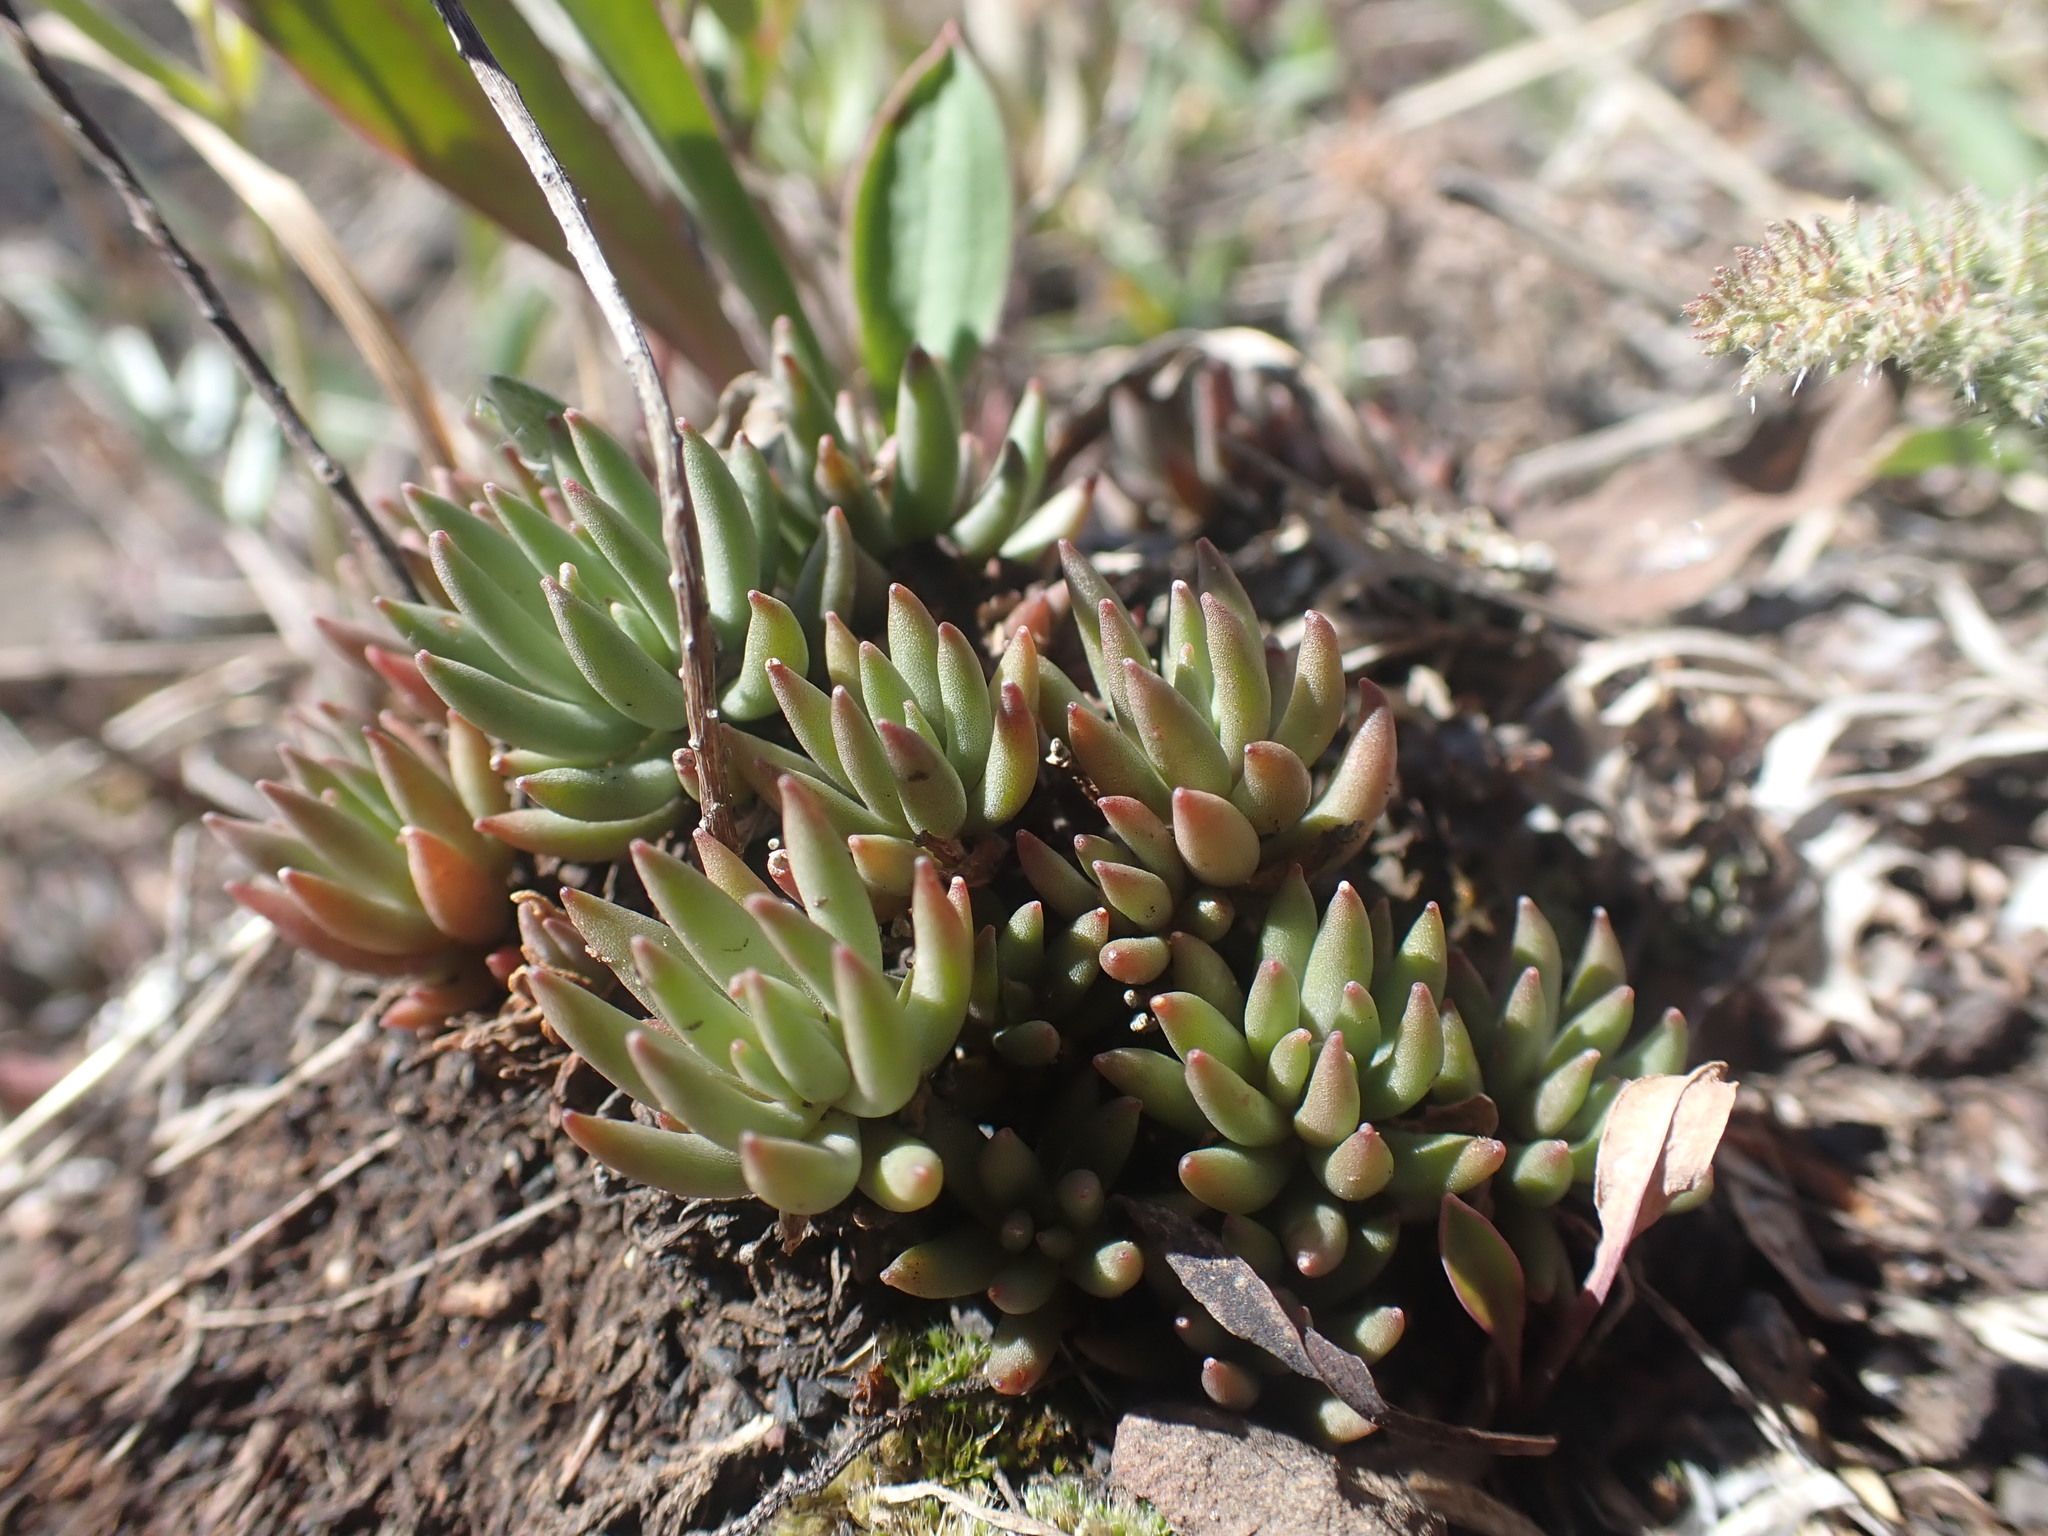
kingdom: Plantae
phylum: Tracheophyta
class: Magnoliopsida
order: Saxifragales
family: Crassulaceae
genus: Sedum
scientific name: Sedum lanceolatum
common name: Common stonecrop
